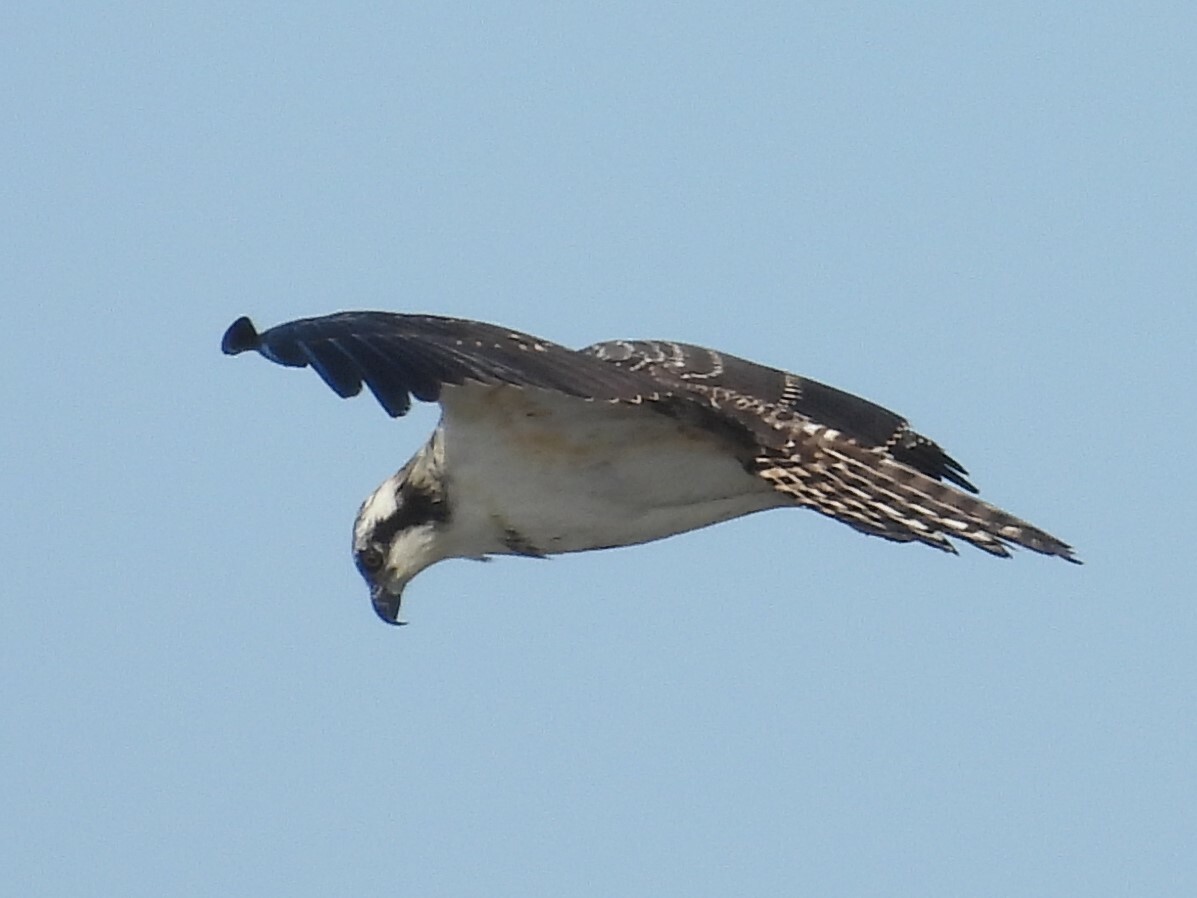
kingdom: Animalia
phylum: Chordata
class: Aves
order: Accipitriformes
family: Pandionidae
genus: Pandion
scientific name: Pandion haliaetus
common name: Osprey
